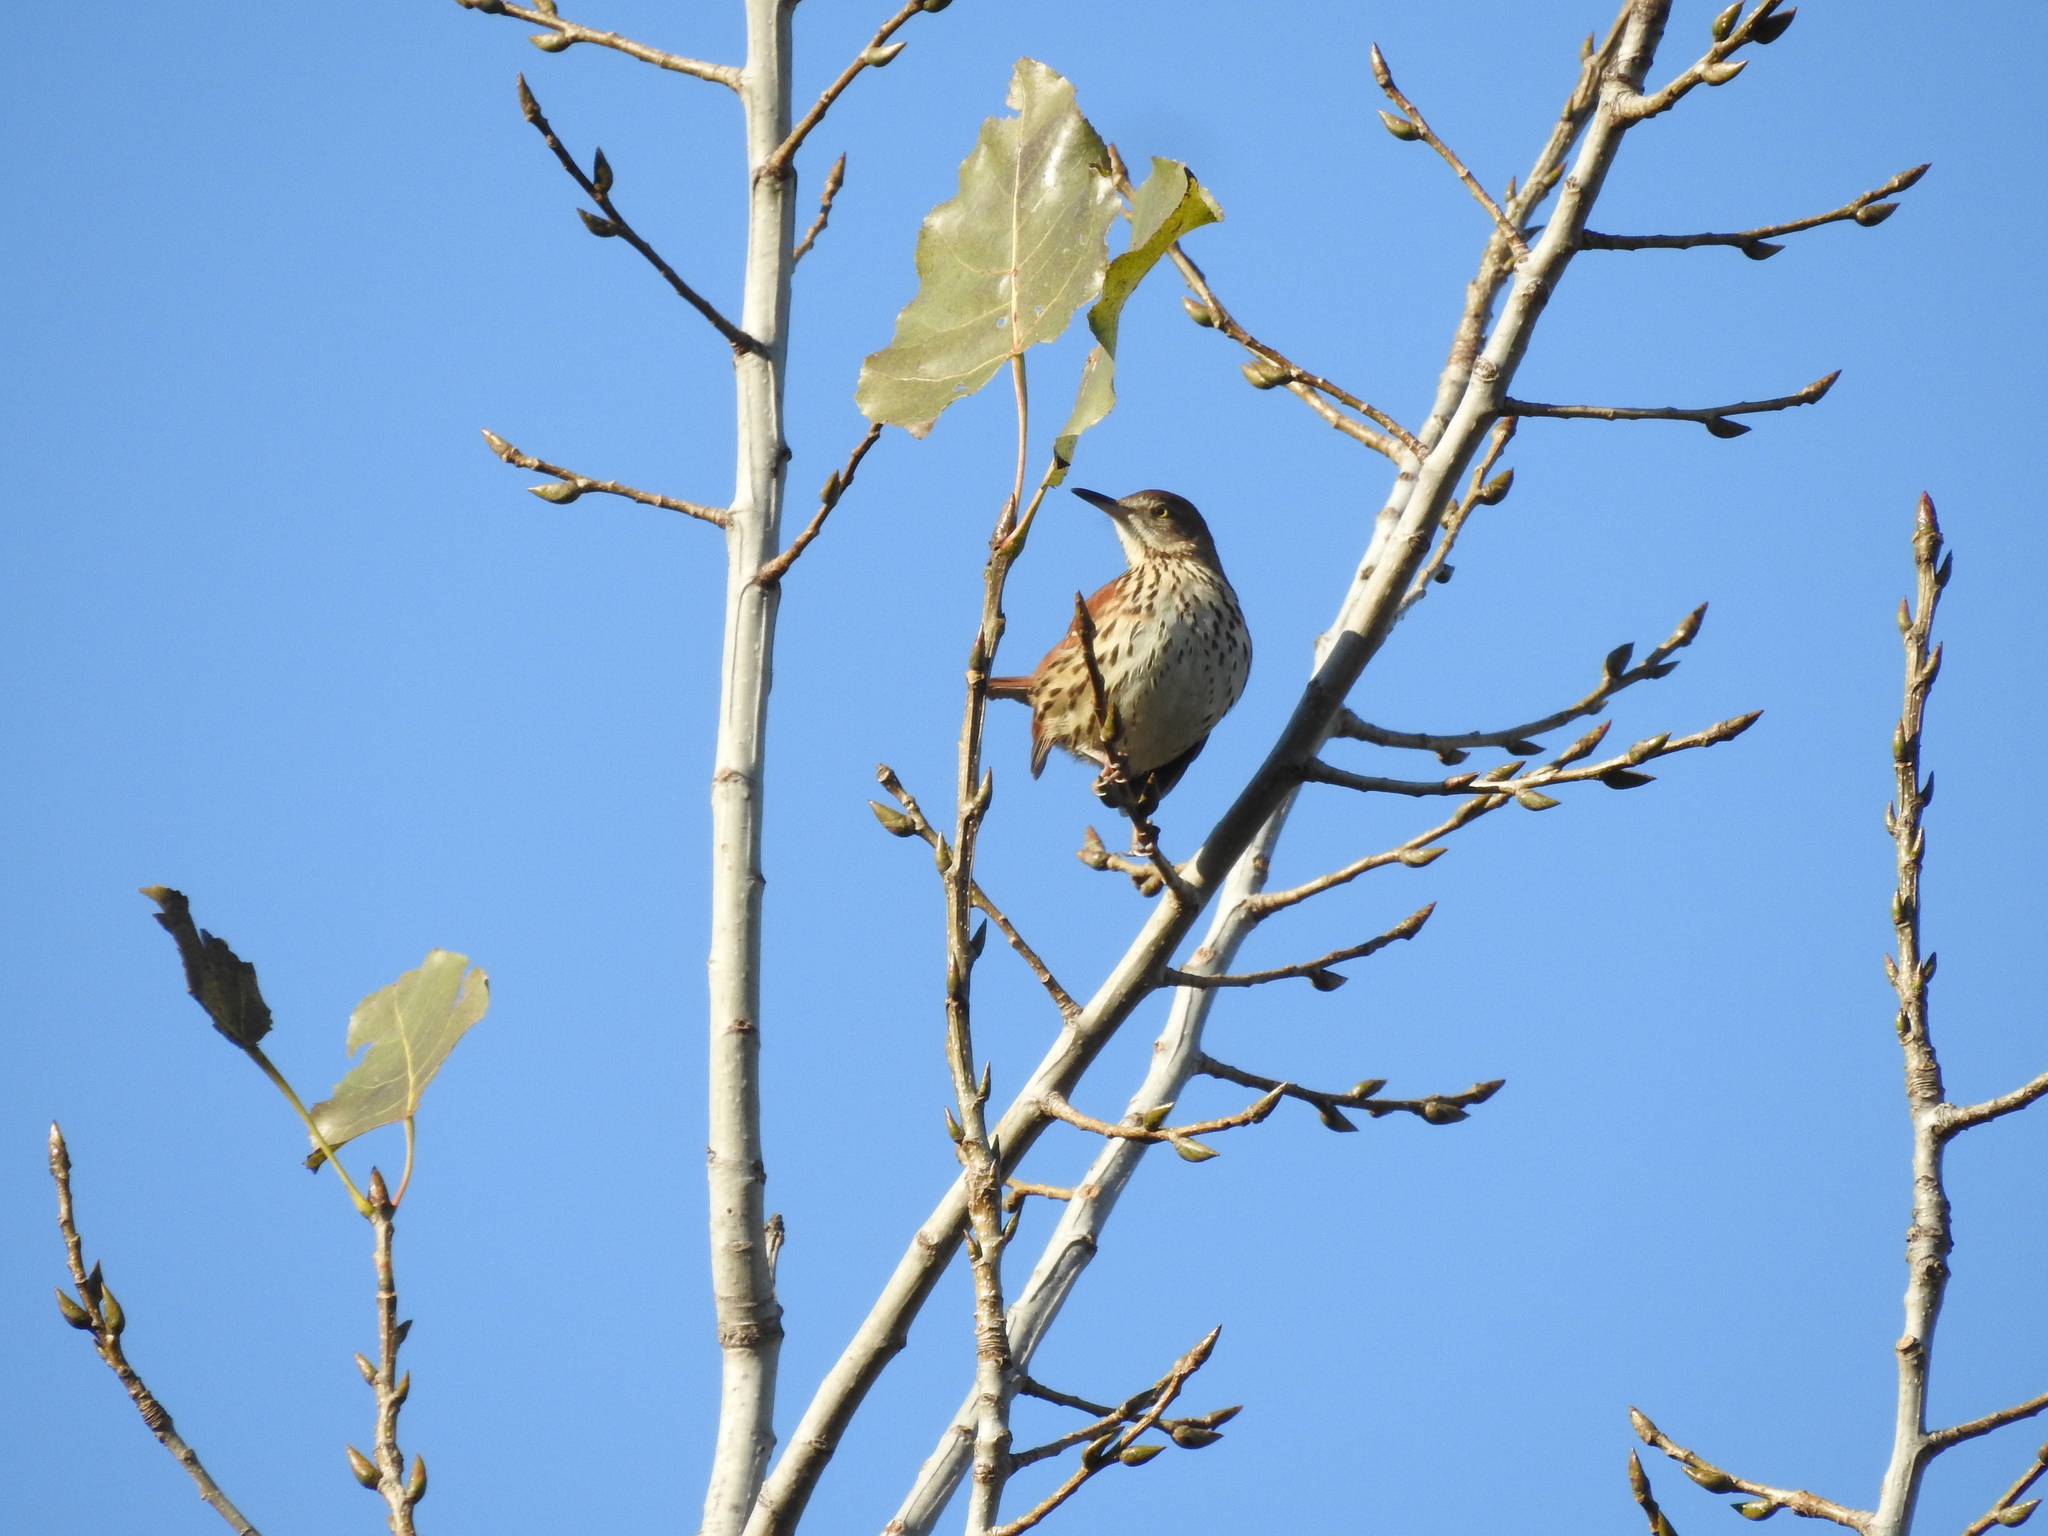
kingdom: Animalia
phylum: Chordata
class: Aves
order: Passeriformes
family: Mimidae
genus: Toxostoma
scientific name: Toxostoma rufum
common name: Brown thrasher
